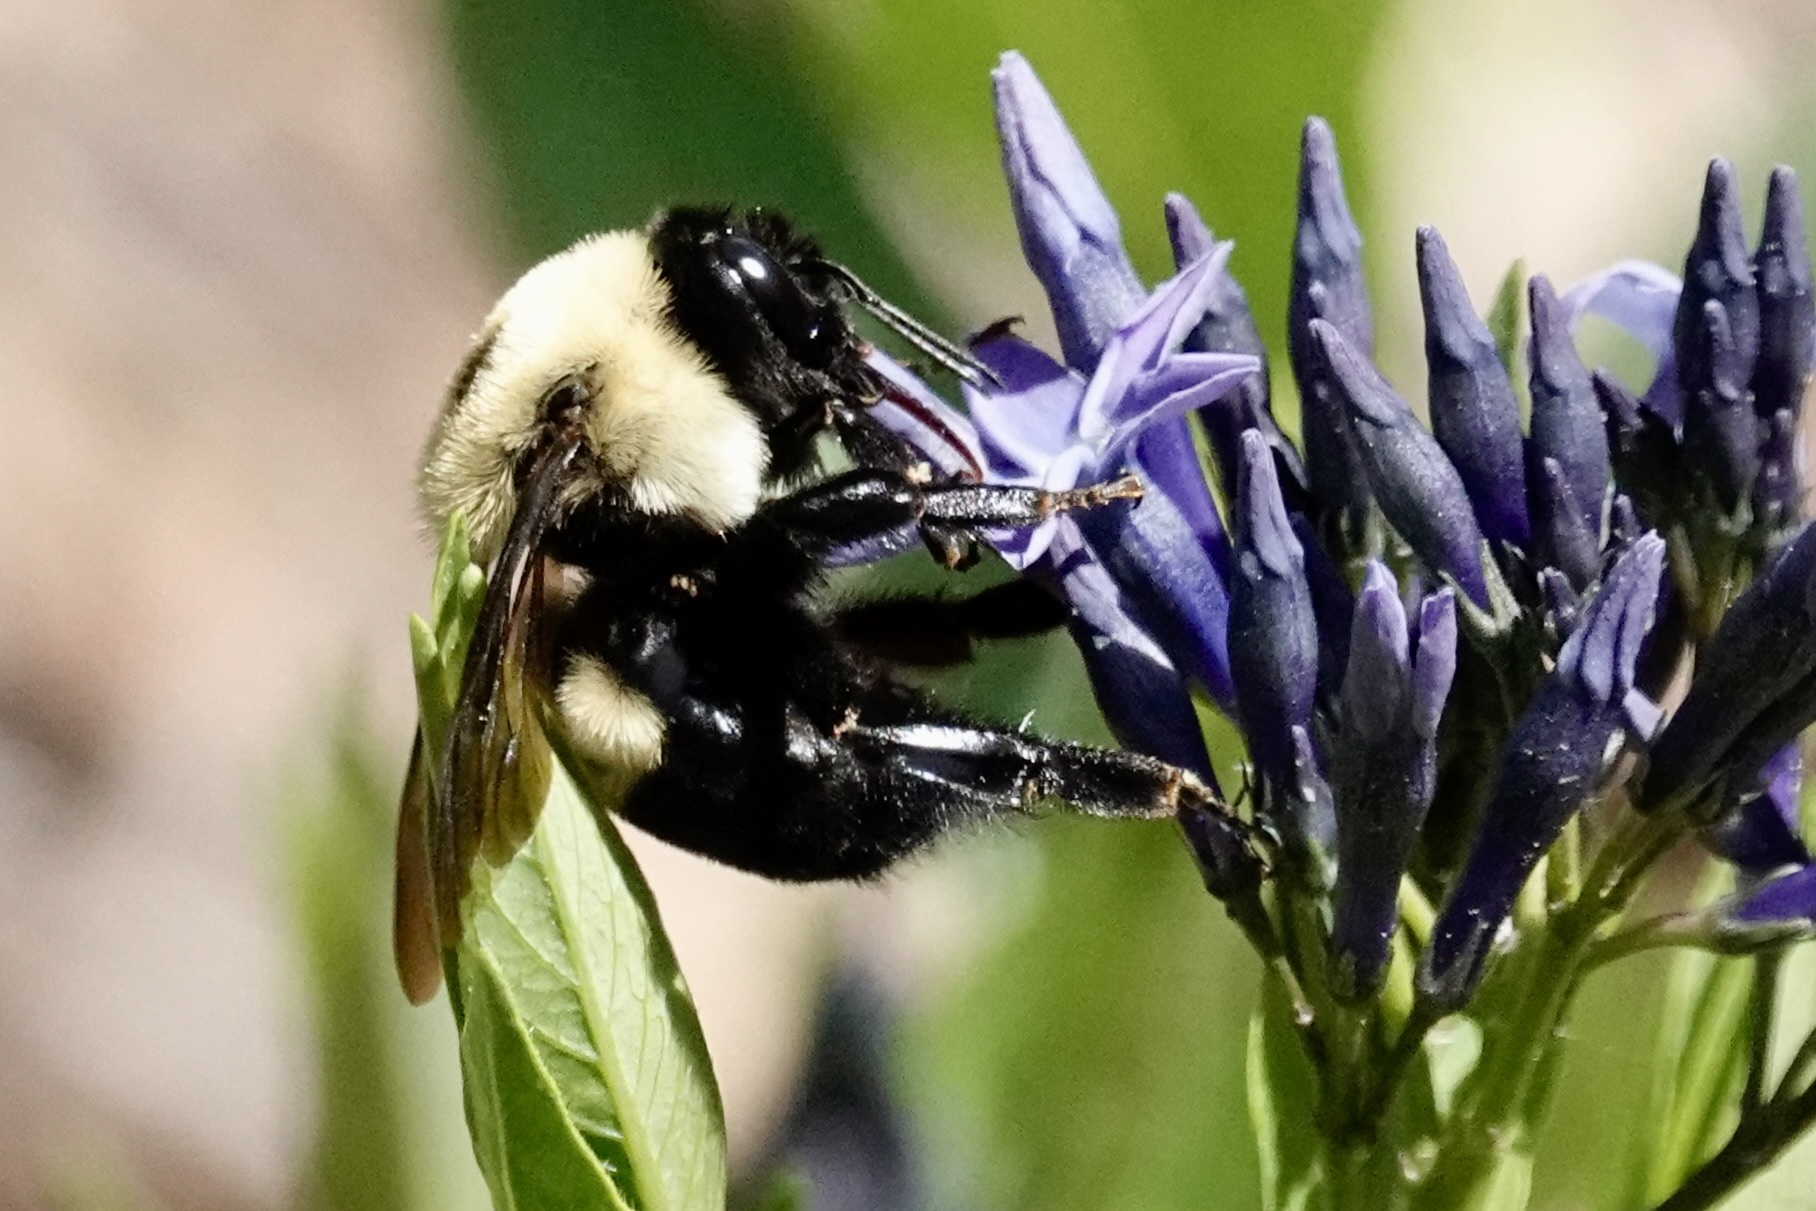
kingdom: Animalia
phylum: Arthropoda
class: Insecta
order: Hymenoptera
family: Apidae
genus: Bombus
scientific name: Bombus griseocollis
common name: Brown-belted bumble bee
